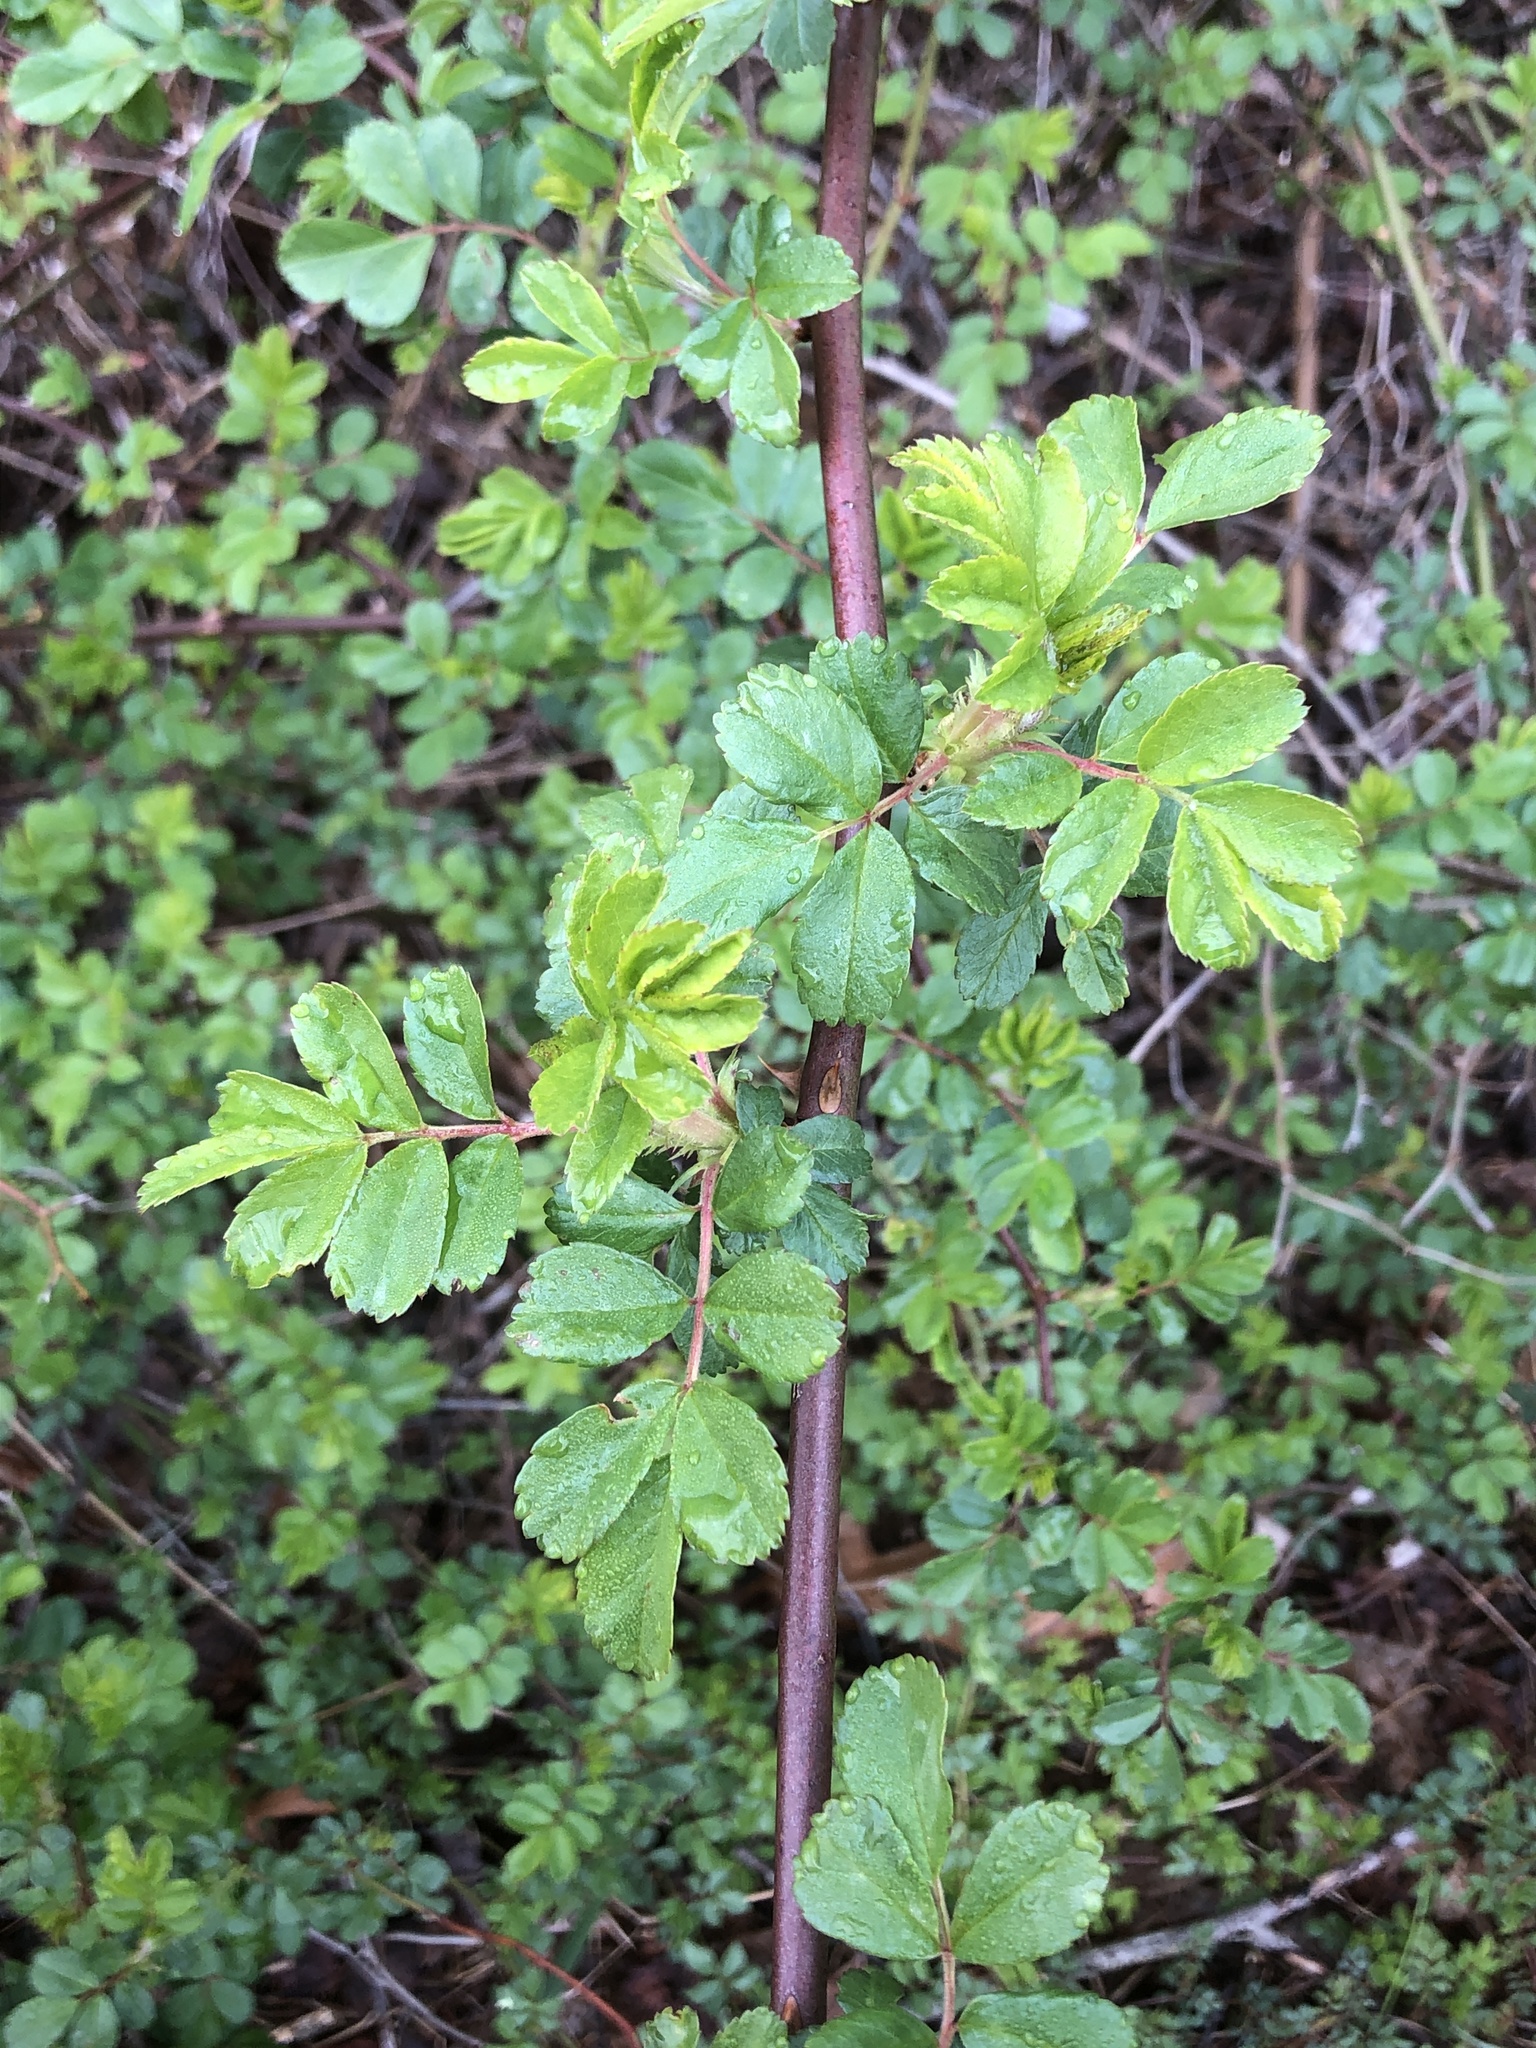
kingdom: Plantae
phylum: Tracheophyta
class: Magnoliopsida
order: Rosales
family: Rosaceae
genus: Rosa
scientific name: Rosa multiflora
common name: Multiflora rose
